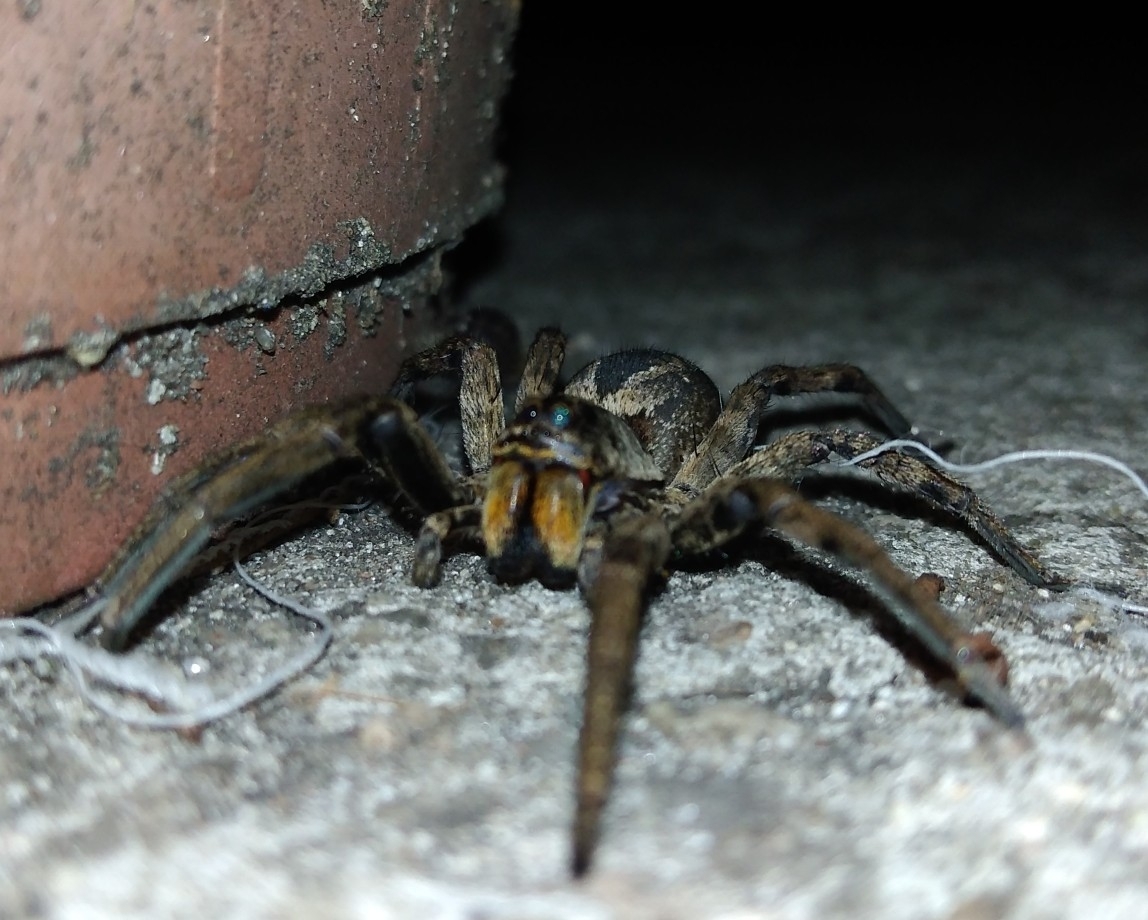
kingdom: Animalia
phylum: Arthropoda
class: Arachnida
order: Araneae
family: Lycosidae
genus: Lycosa
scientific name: Lycosa erythrognatha
